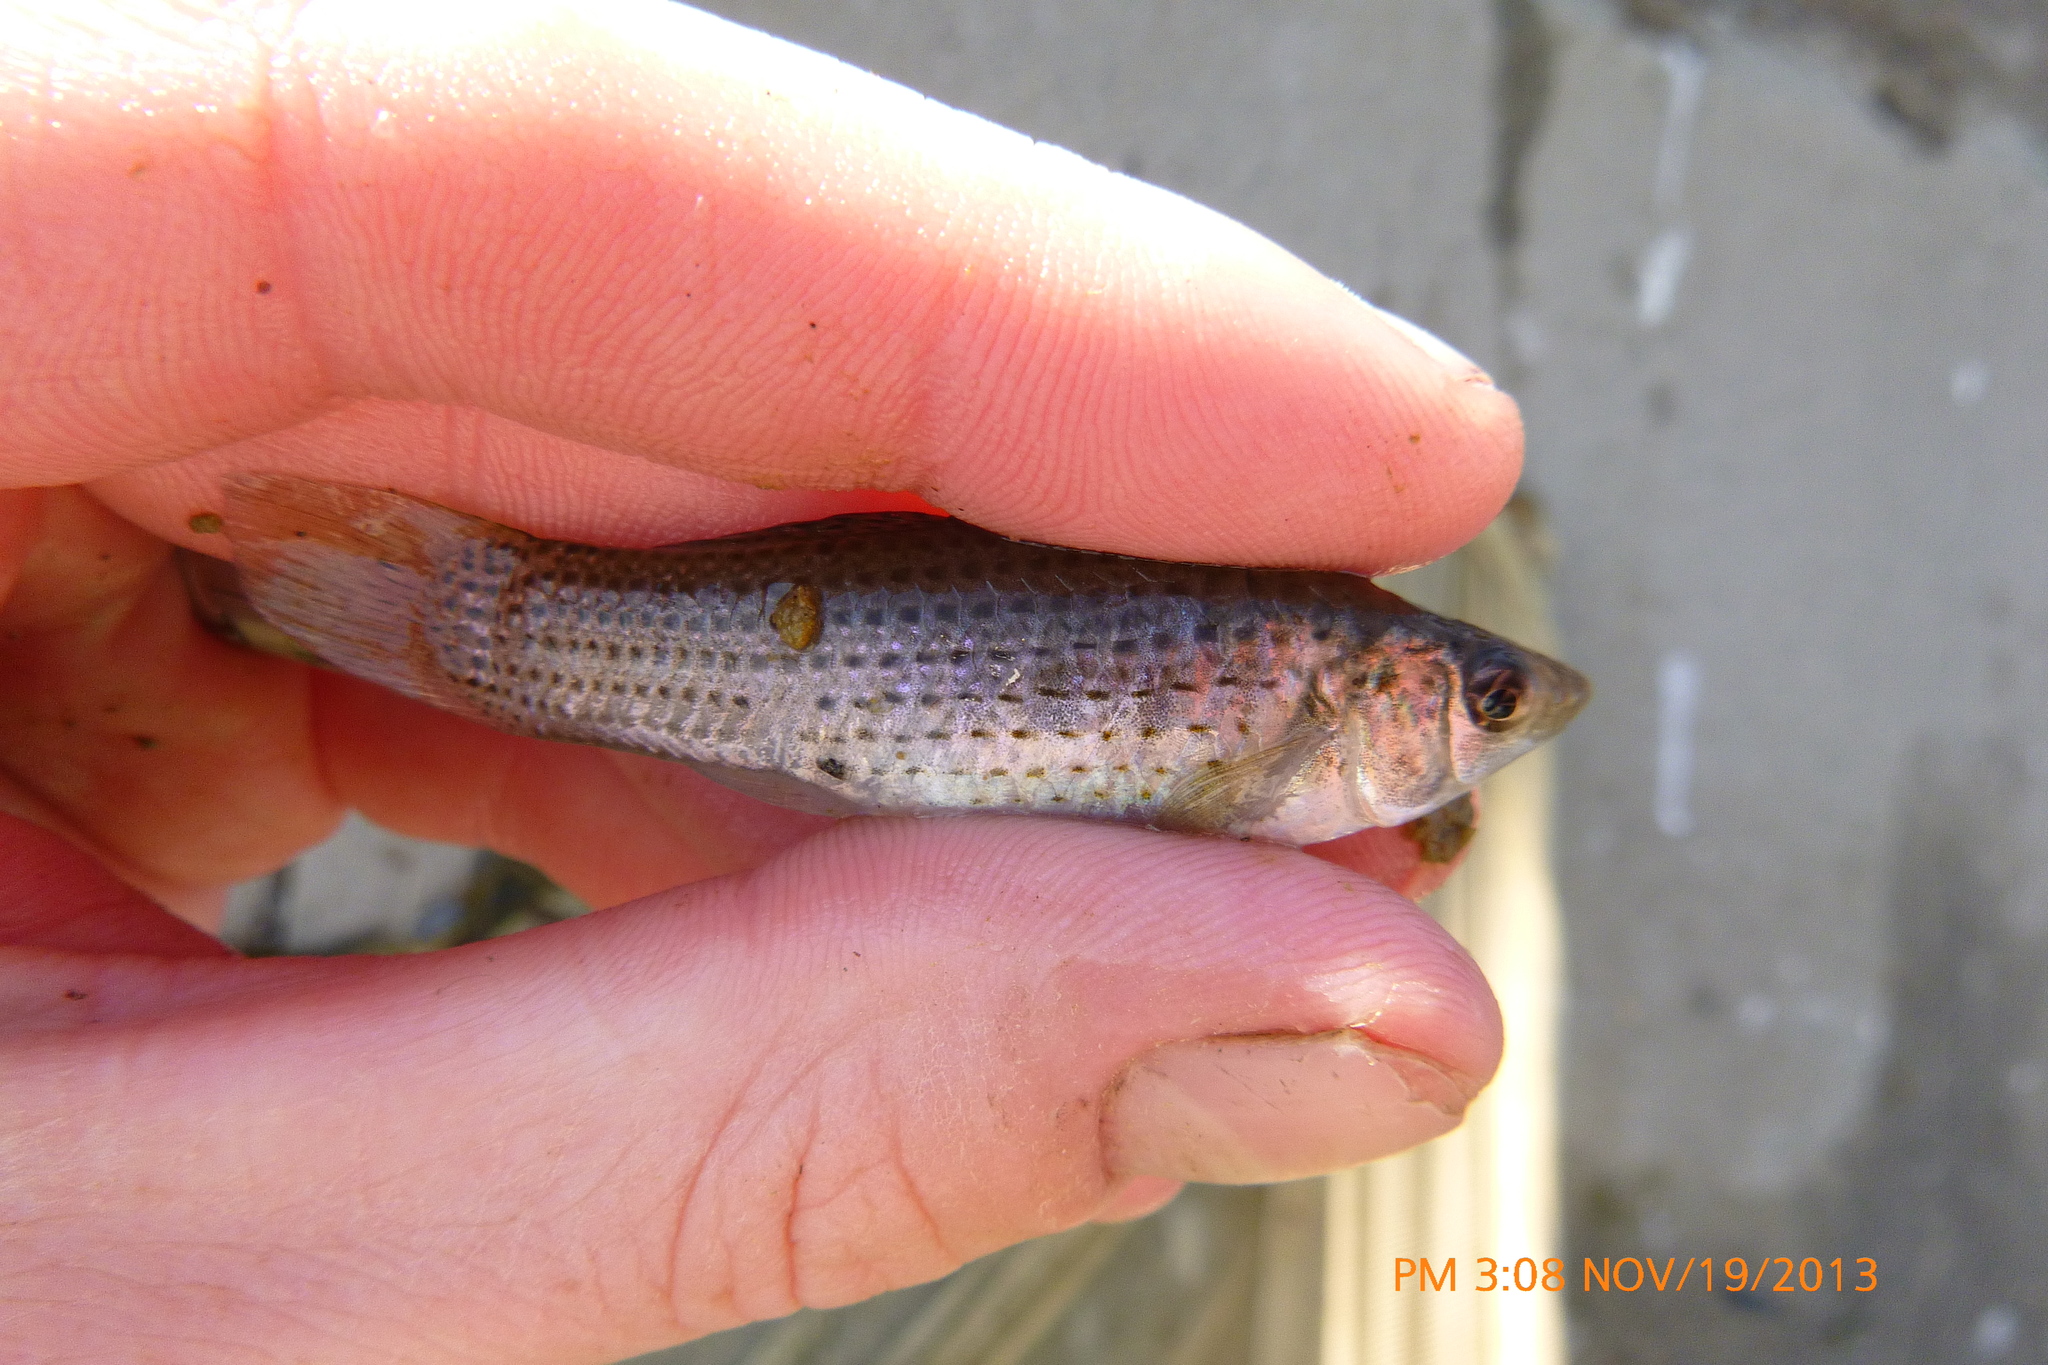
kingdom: Animalia
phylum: Chordata
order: Cyprinodontiformes
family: Poeciliidae
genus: Poecilia
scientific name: Poecilia latipinna
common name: Sailfin molly
